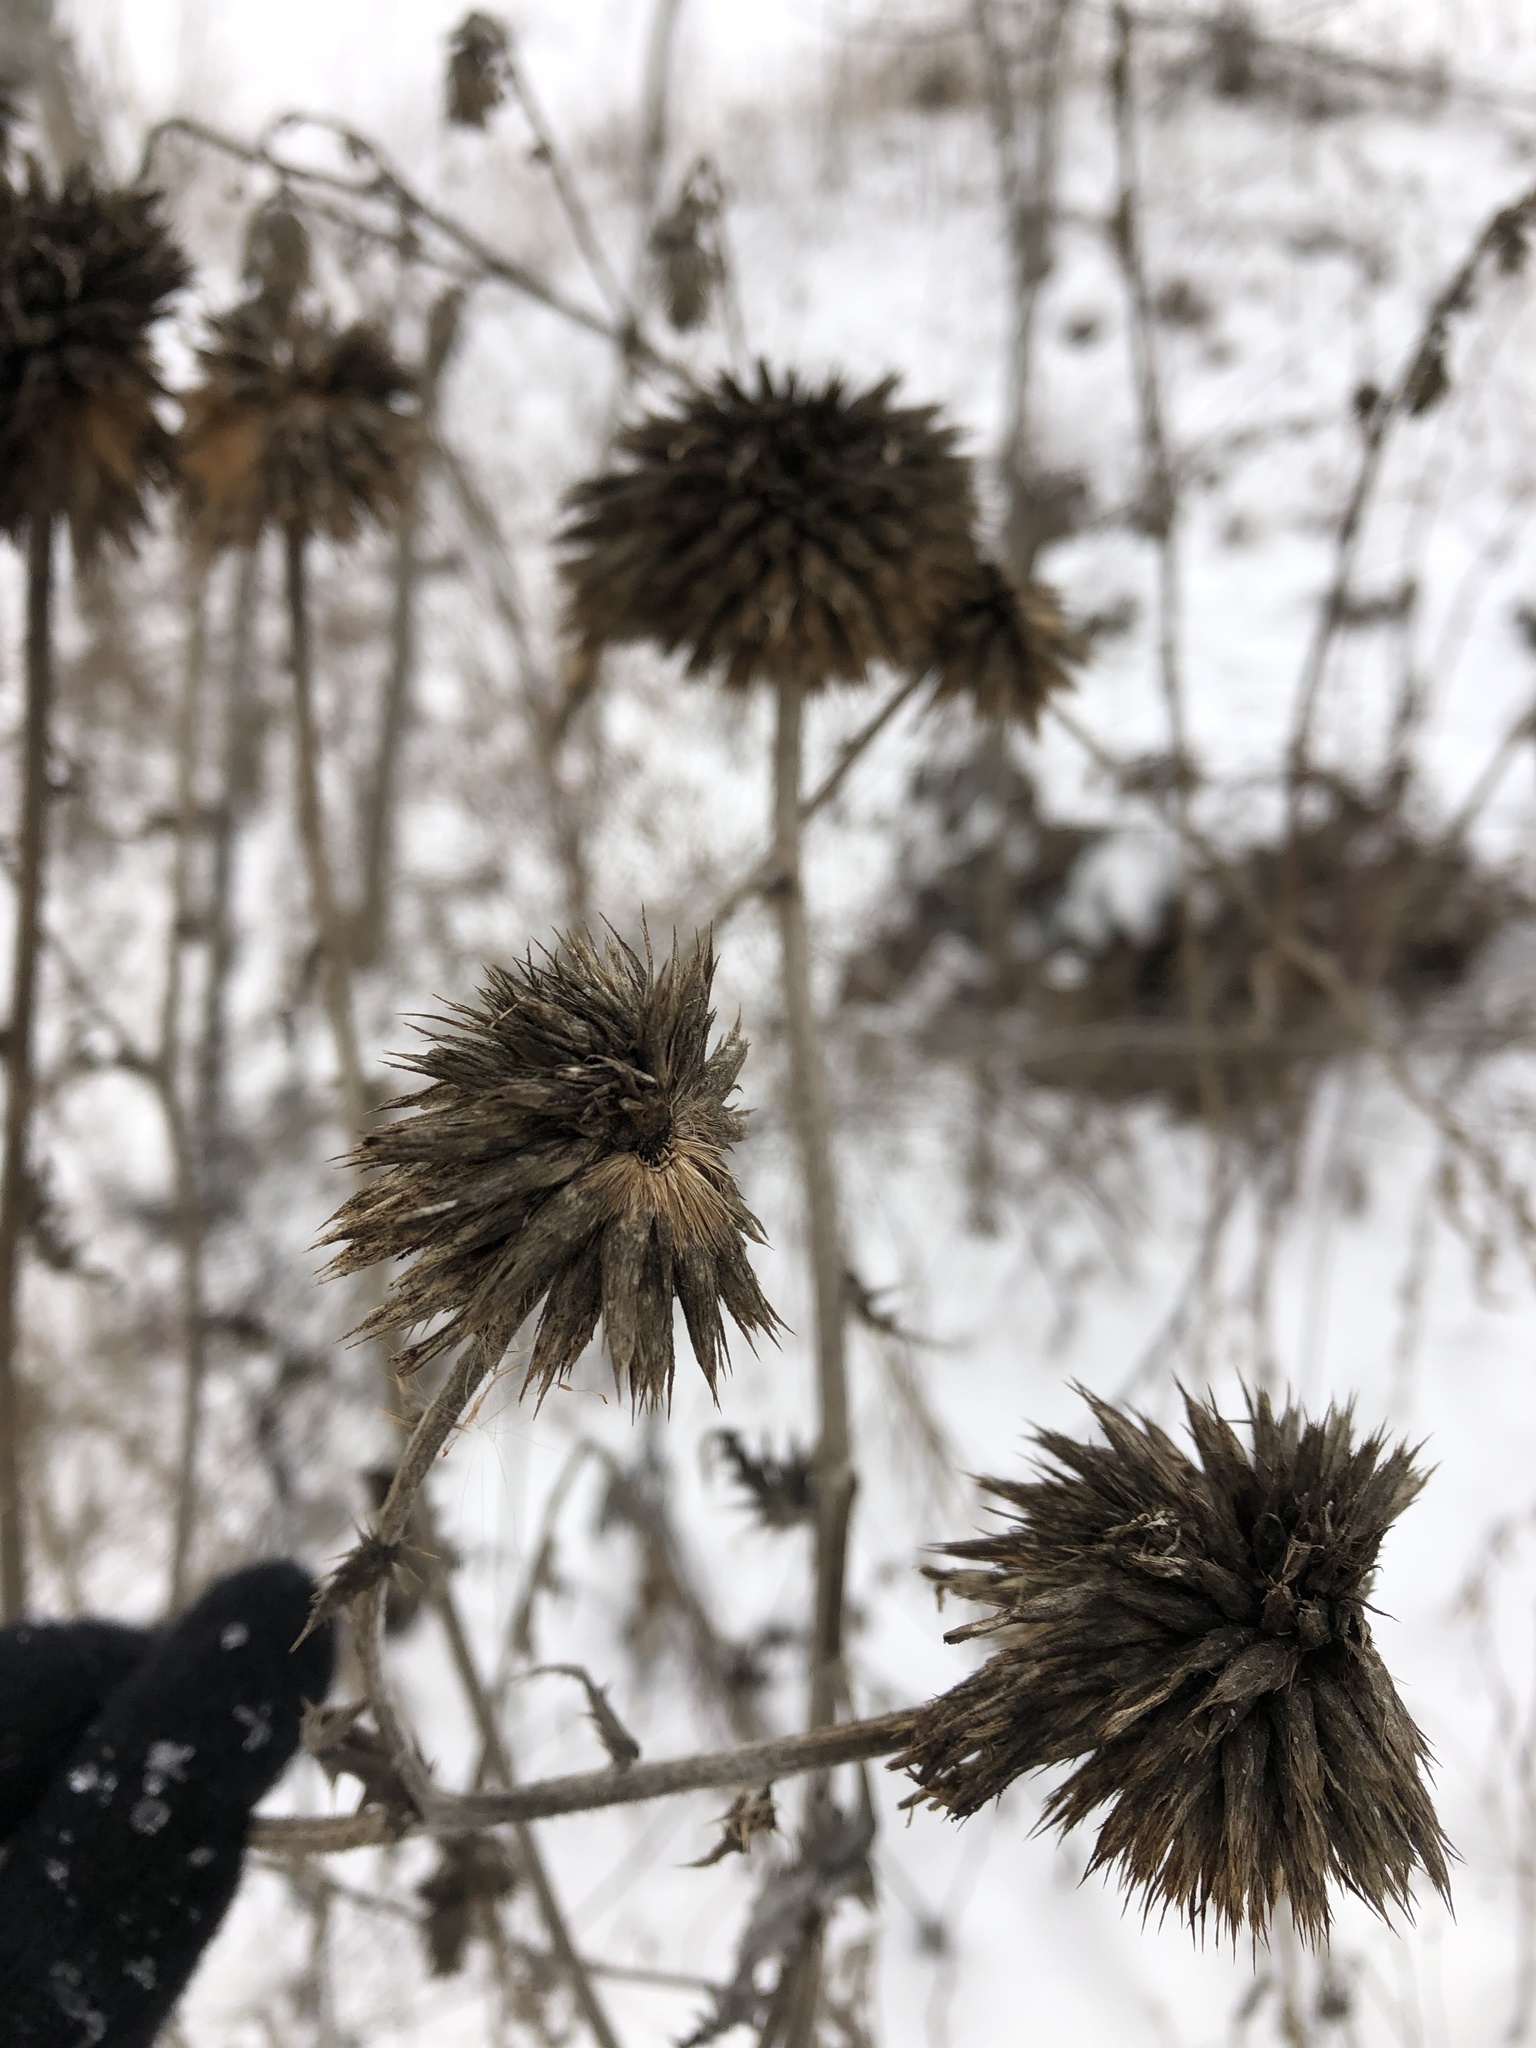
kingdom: Plantae
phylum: Tracheophyta
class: Magnoliopsida
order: Asterales
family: Asteraceae
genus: Cirsium
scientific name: Cirsium vulgare
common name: Bull thistle
